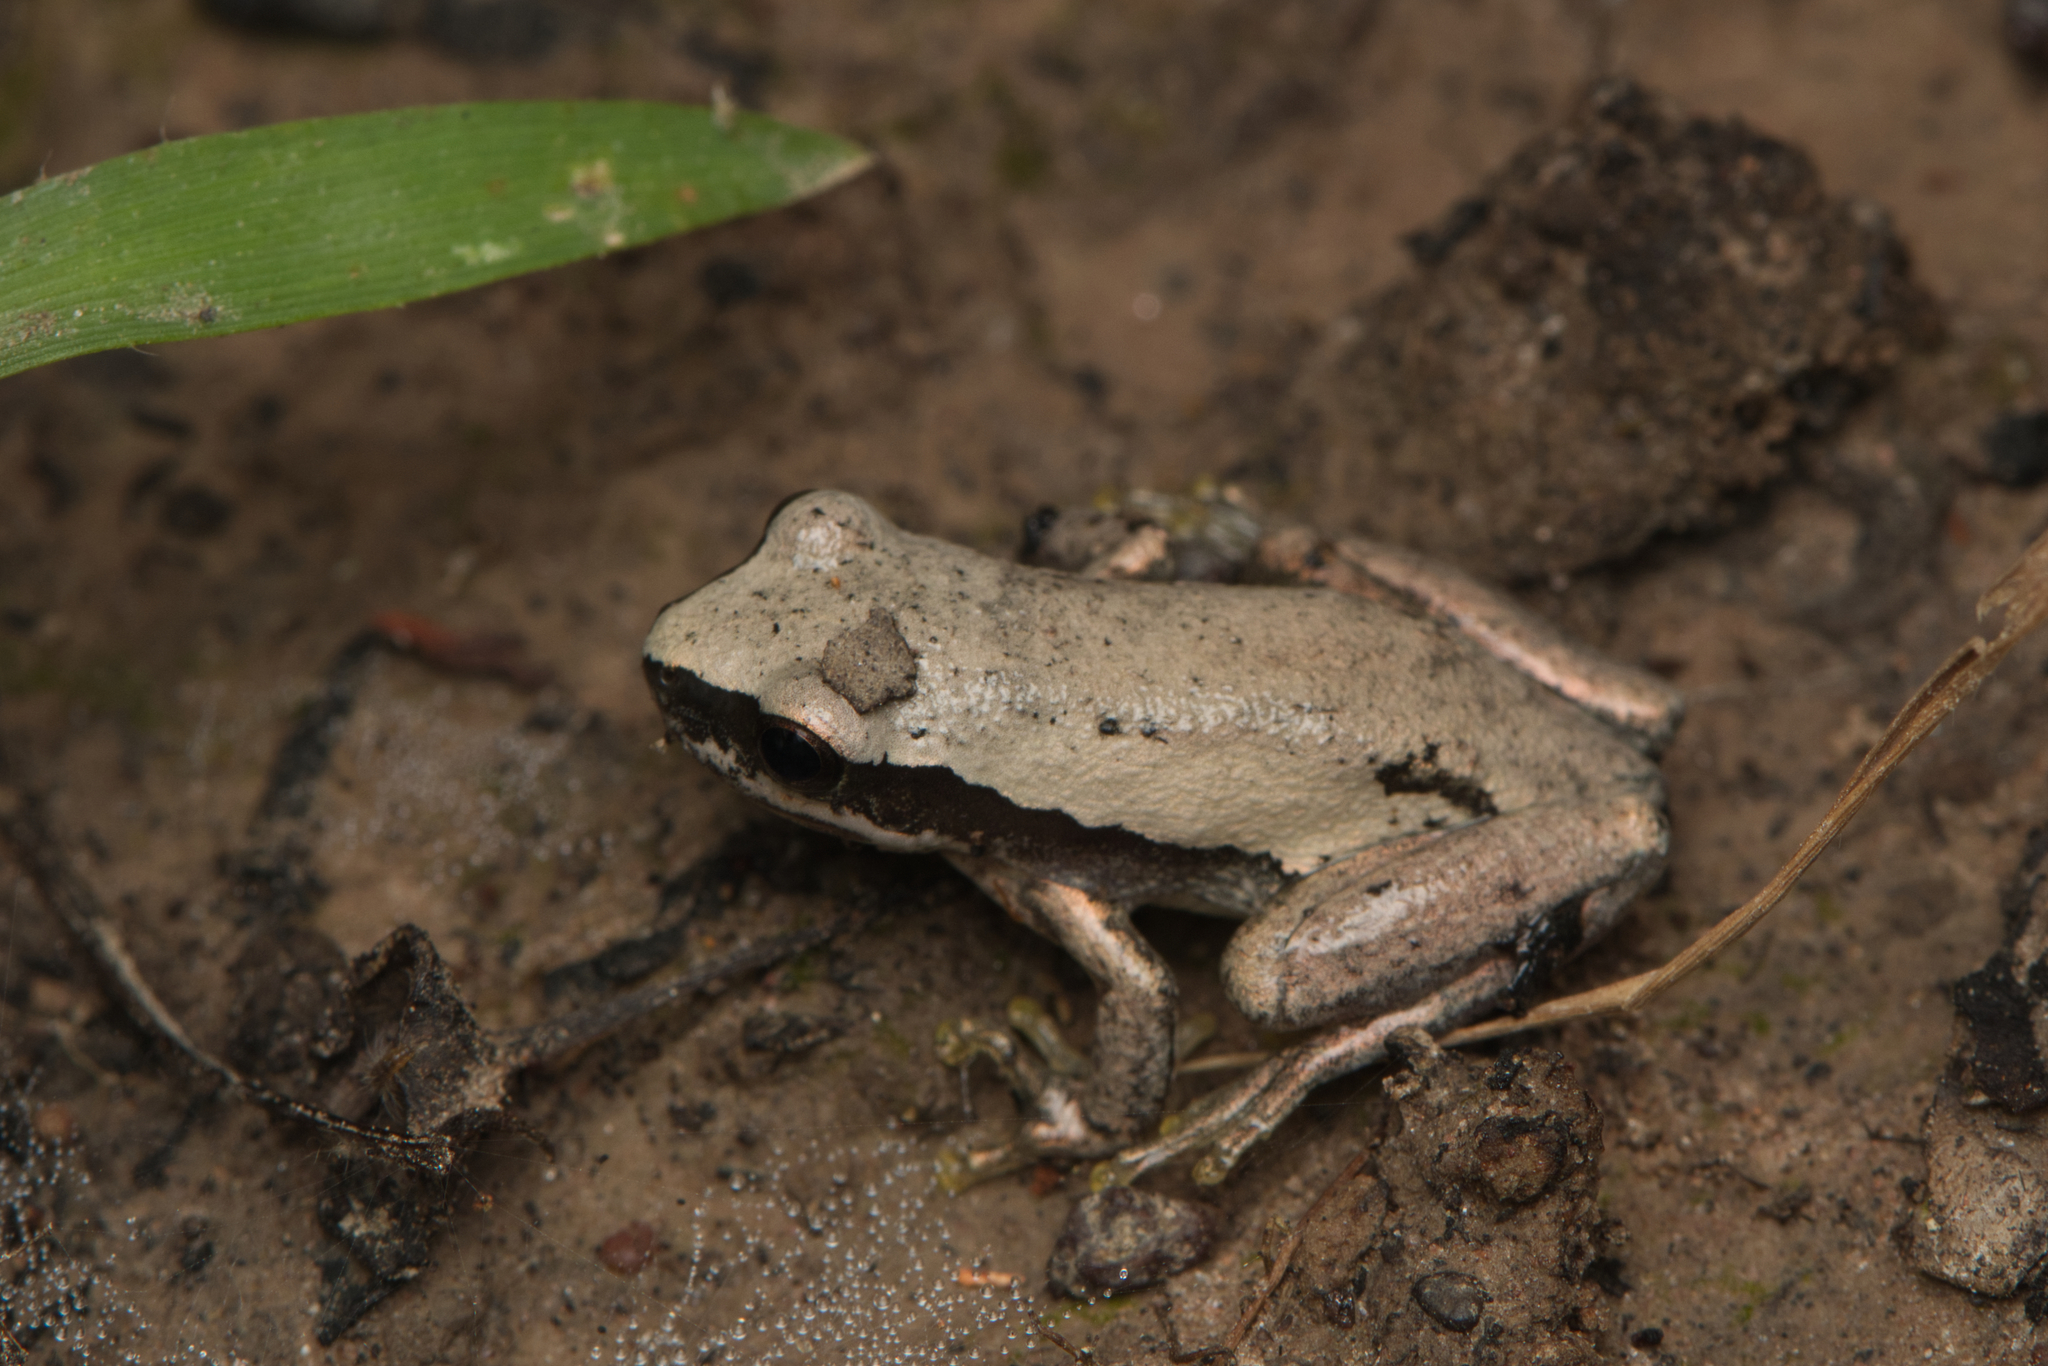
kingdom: Animalia
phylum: Chordata
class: Amphibia
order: Anura
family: Pelodryadidae
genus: Litoria
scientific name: Litoria rubella
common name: Desert tree frog
